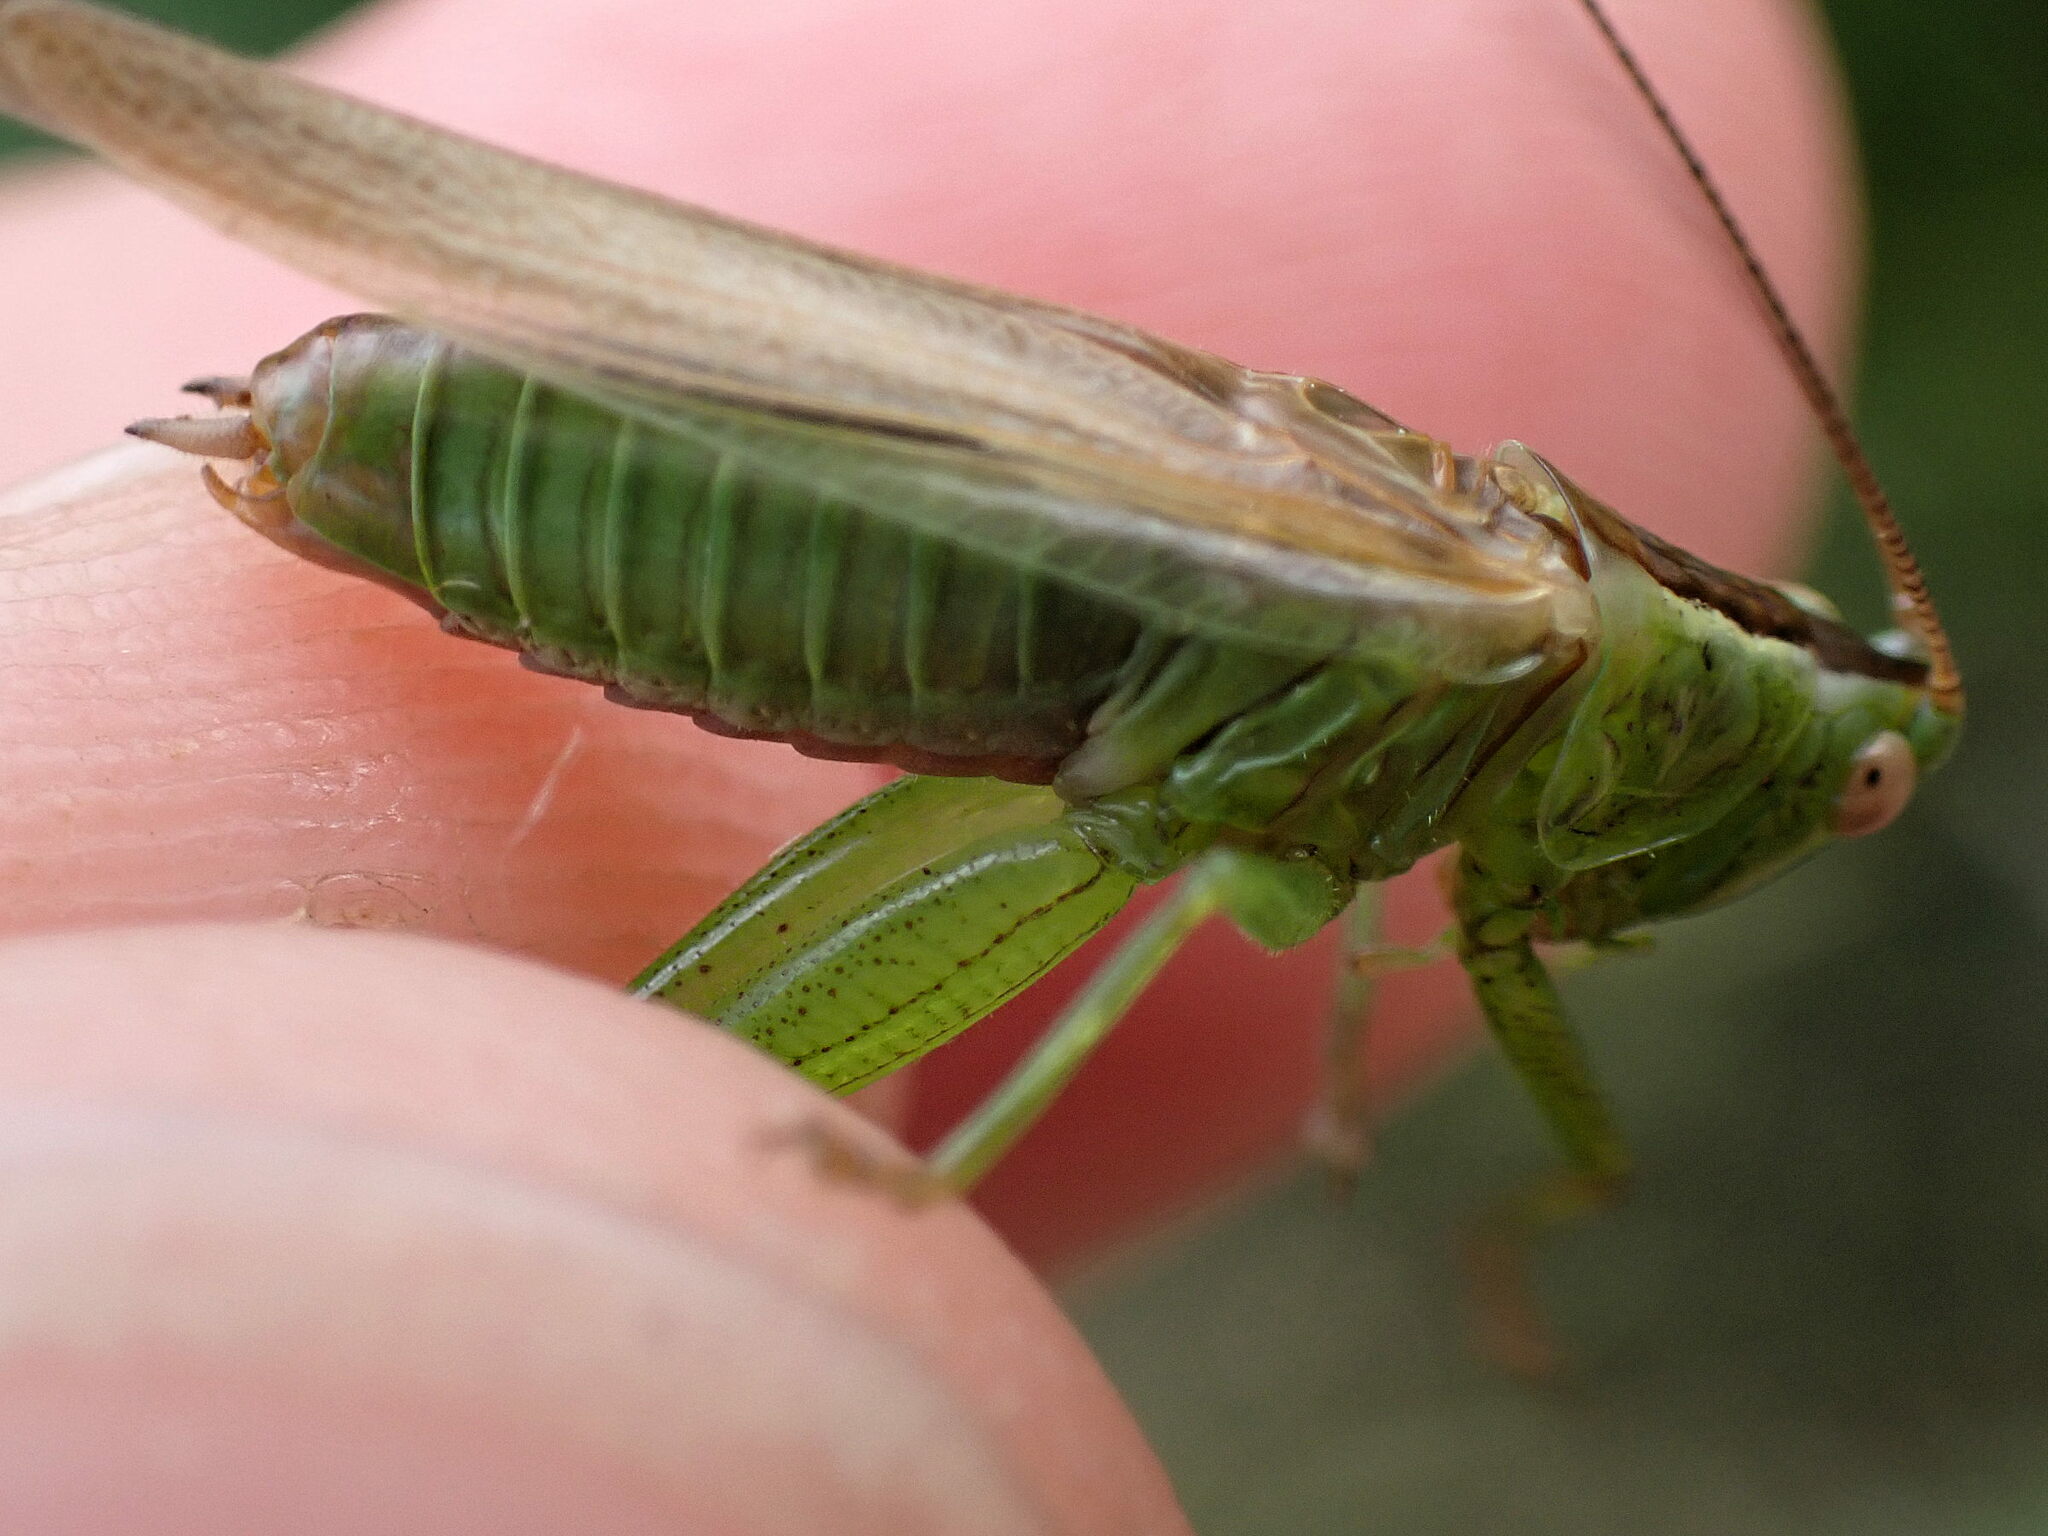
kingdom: Animalia
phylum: Arthropoda
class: Insecta
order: Orthoptera
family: Tettigoniidae
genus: Conocephalus
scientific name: Conocephalus fuscus
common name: Long-winged conehead
